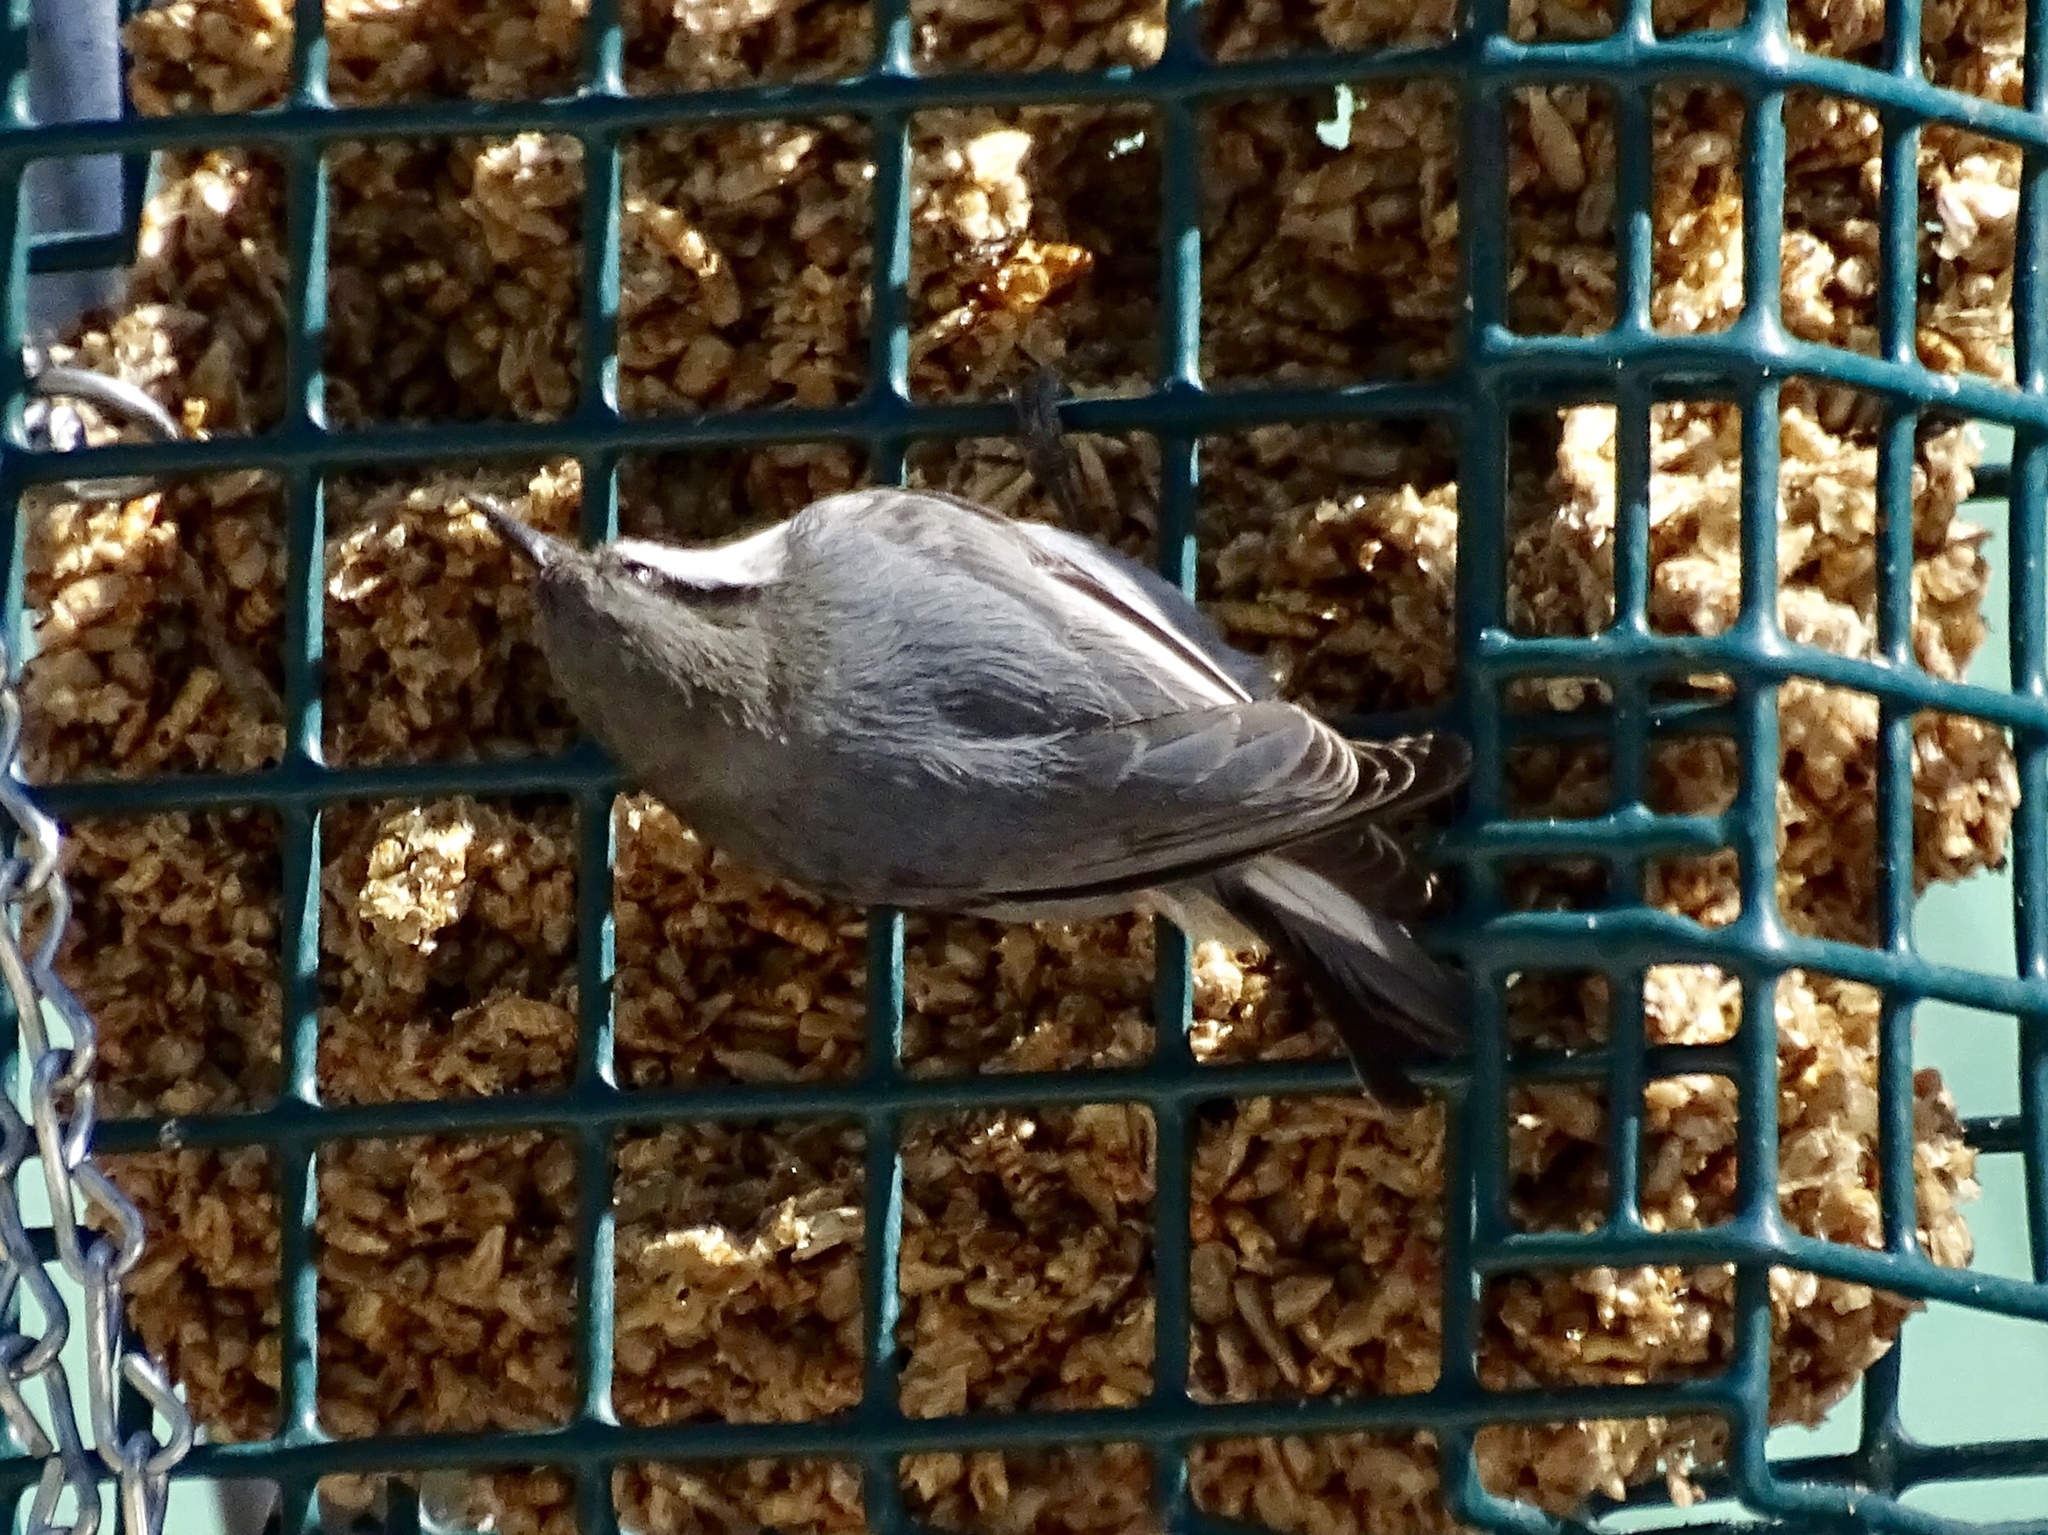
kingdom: Animalia
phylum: Chordata
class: Aves
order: Passeriformes
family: Sittidae
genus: Sitta
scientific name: Sitta pygmaea
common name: Pygmy nuthatch
